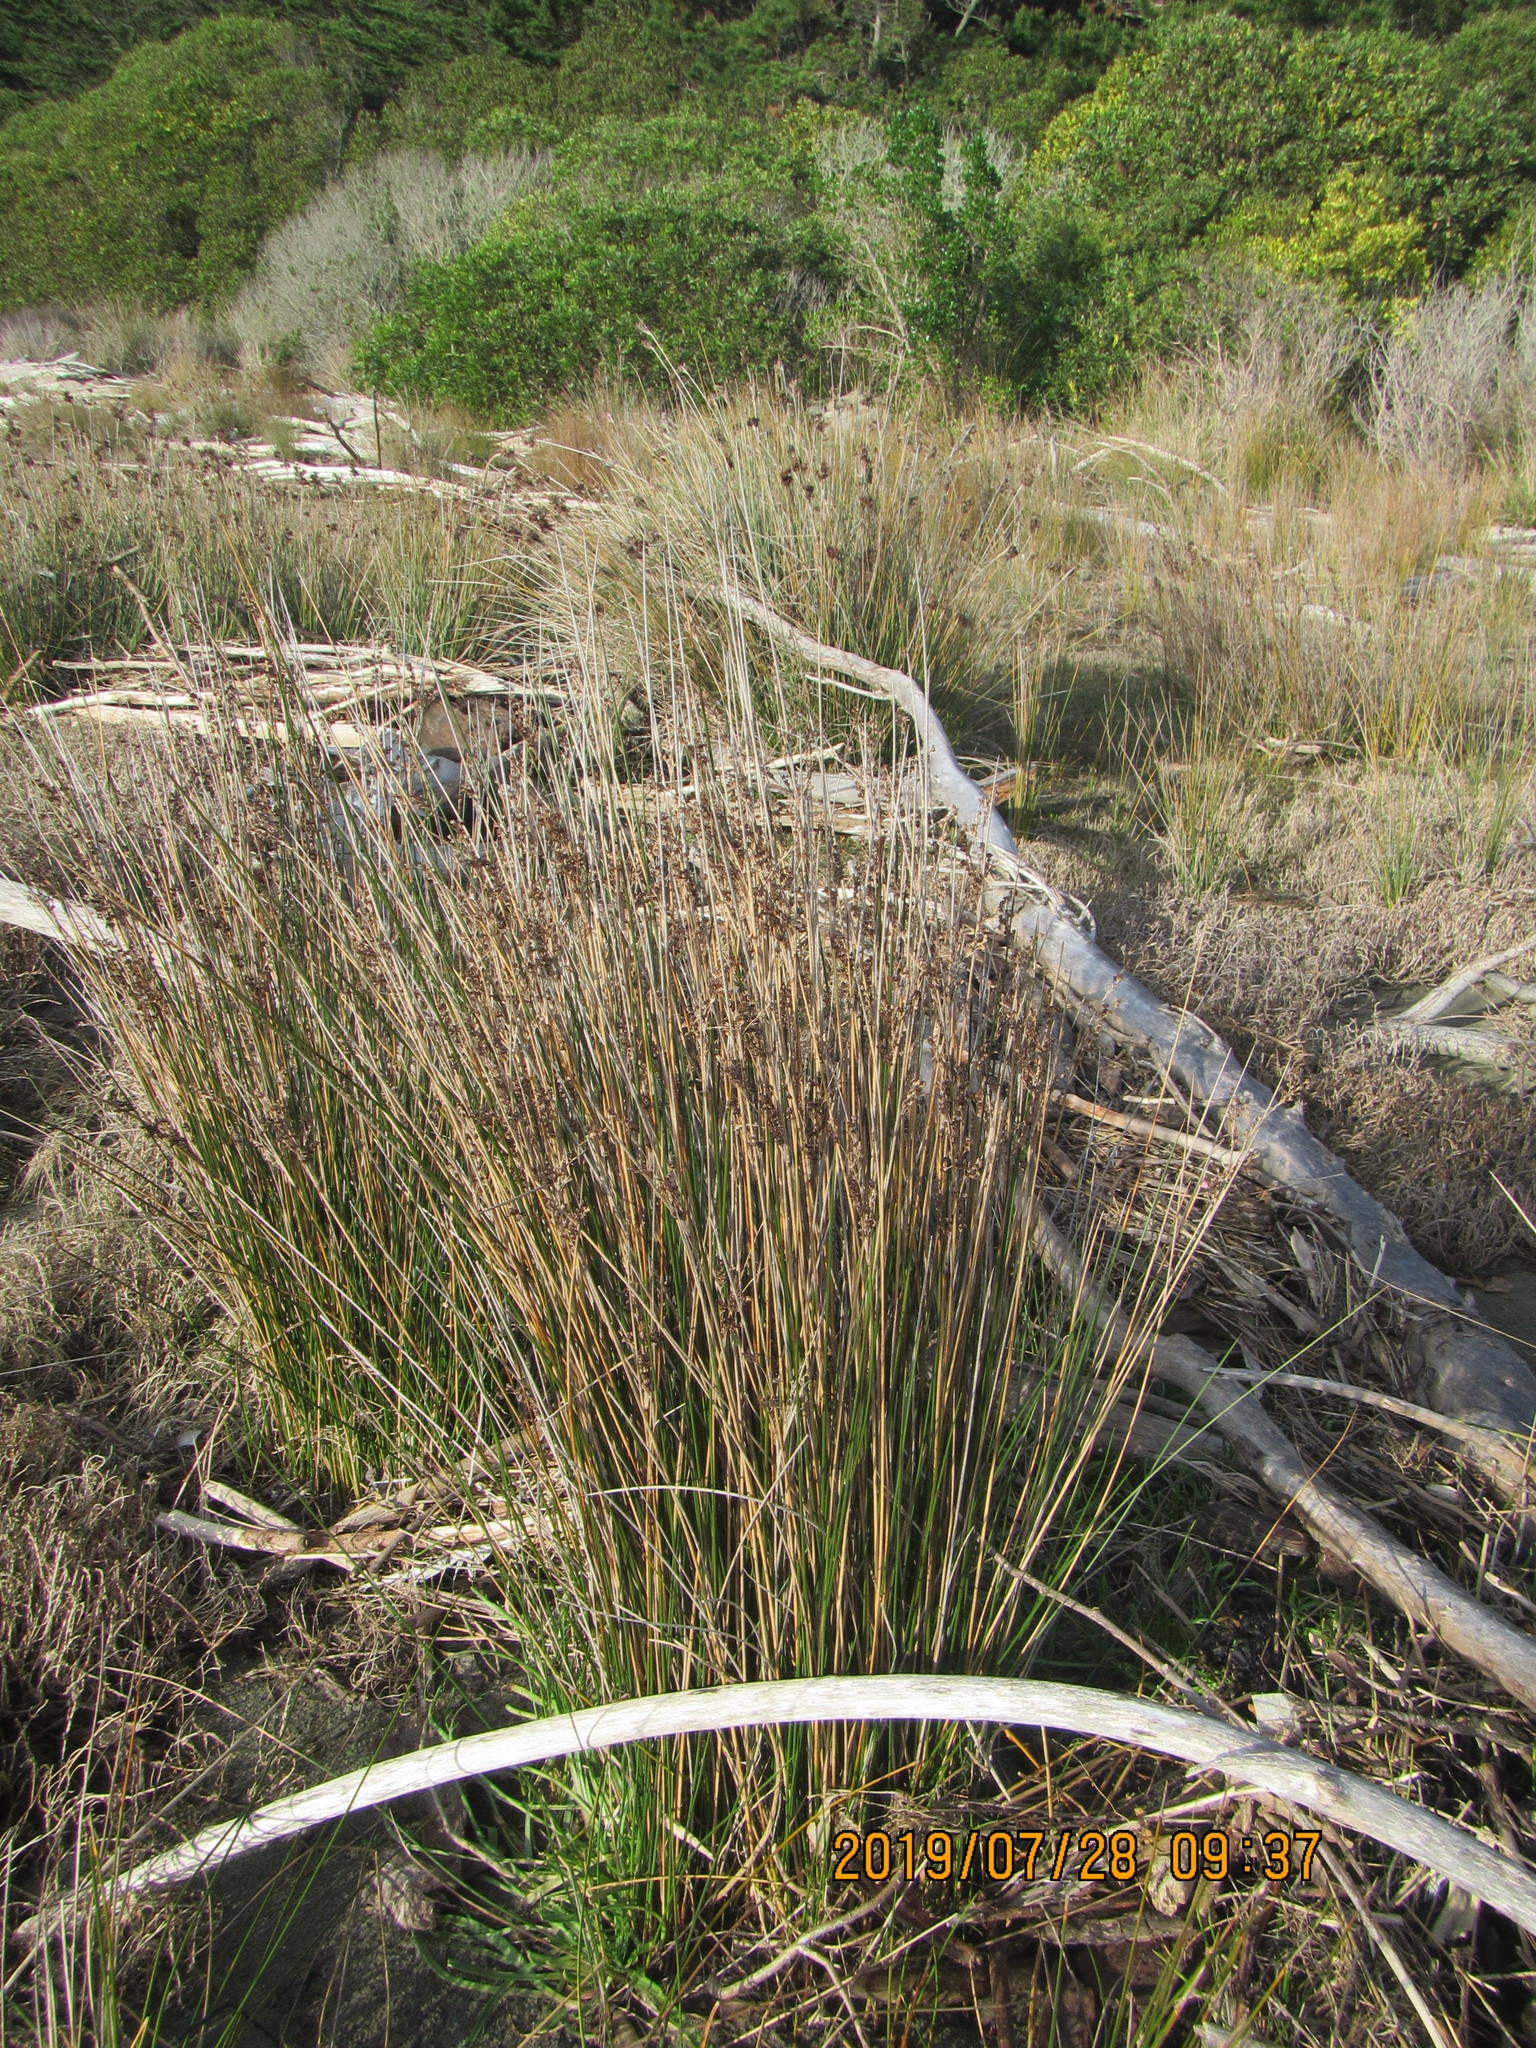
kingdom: Plantae
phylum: Tracheophyta
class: Liliopsida
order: Poales
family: Juncaceae
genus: Juncus
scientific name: Juncus kraussii
